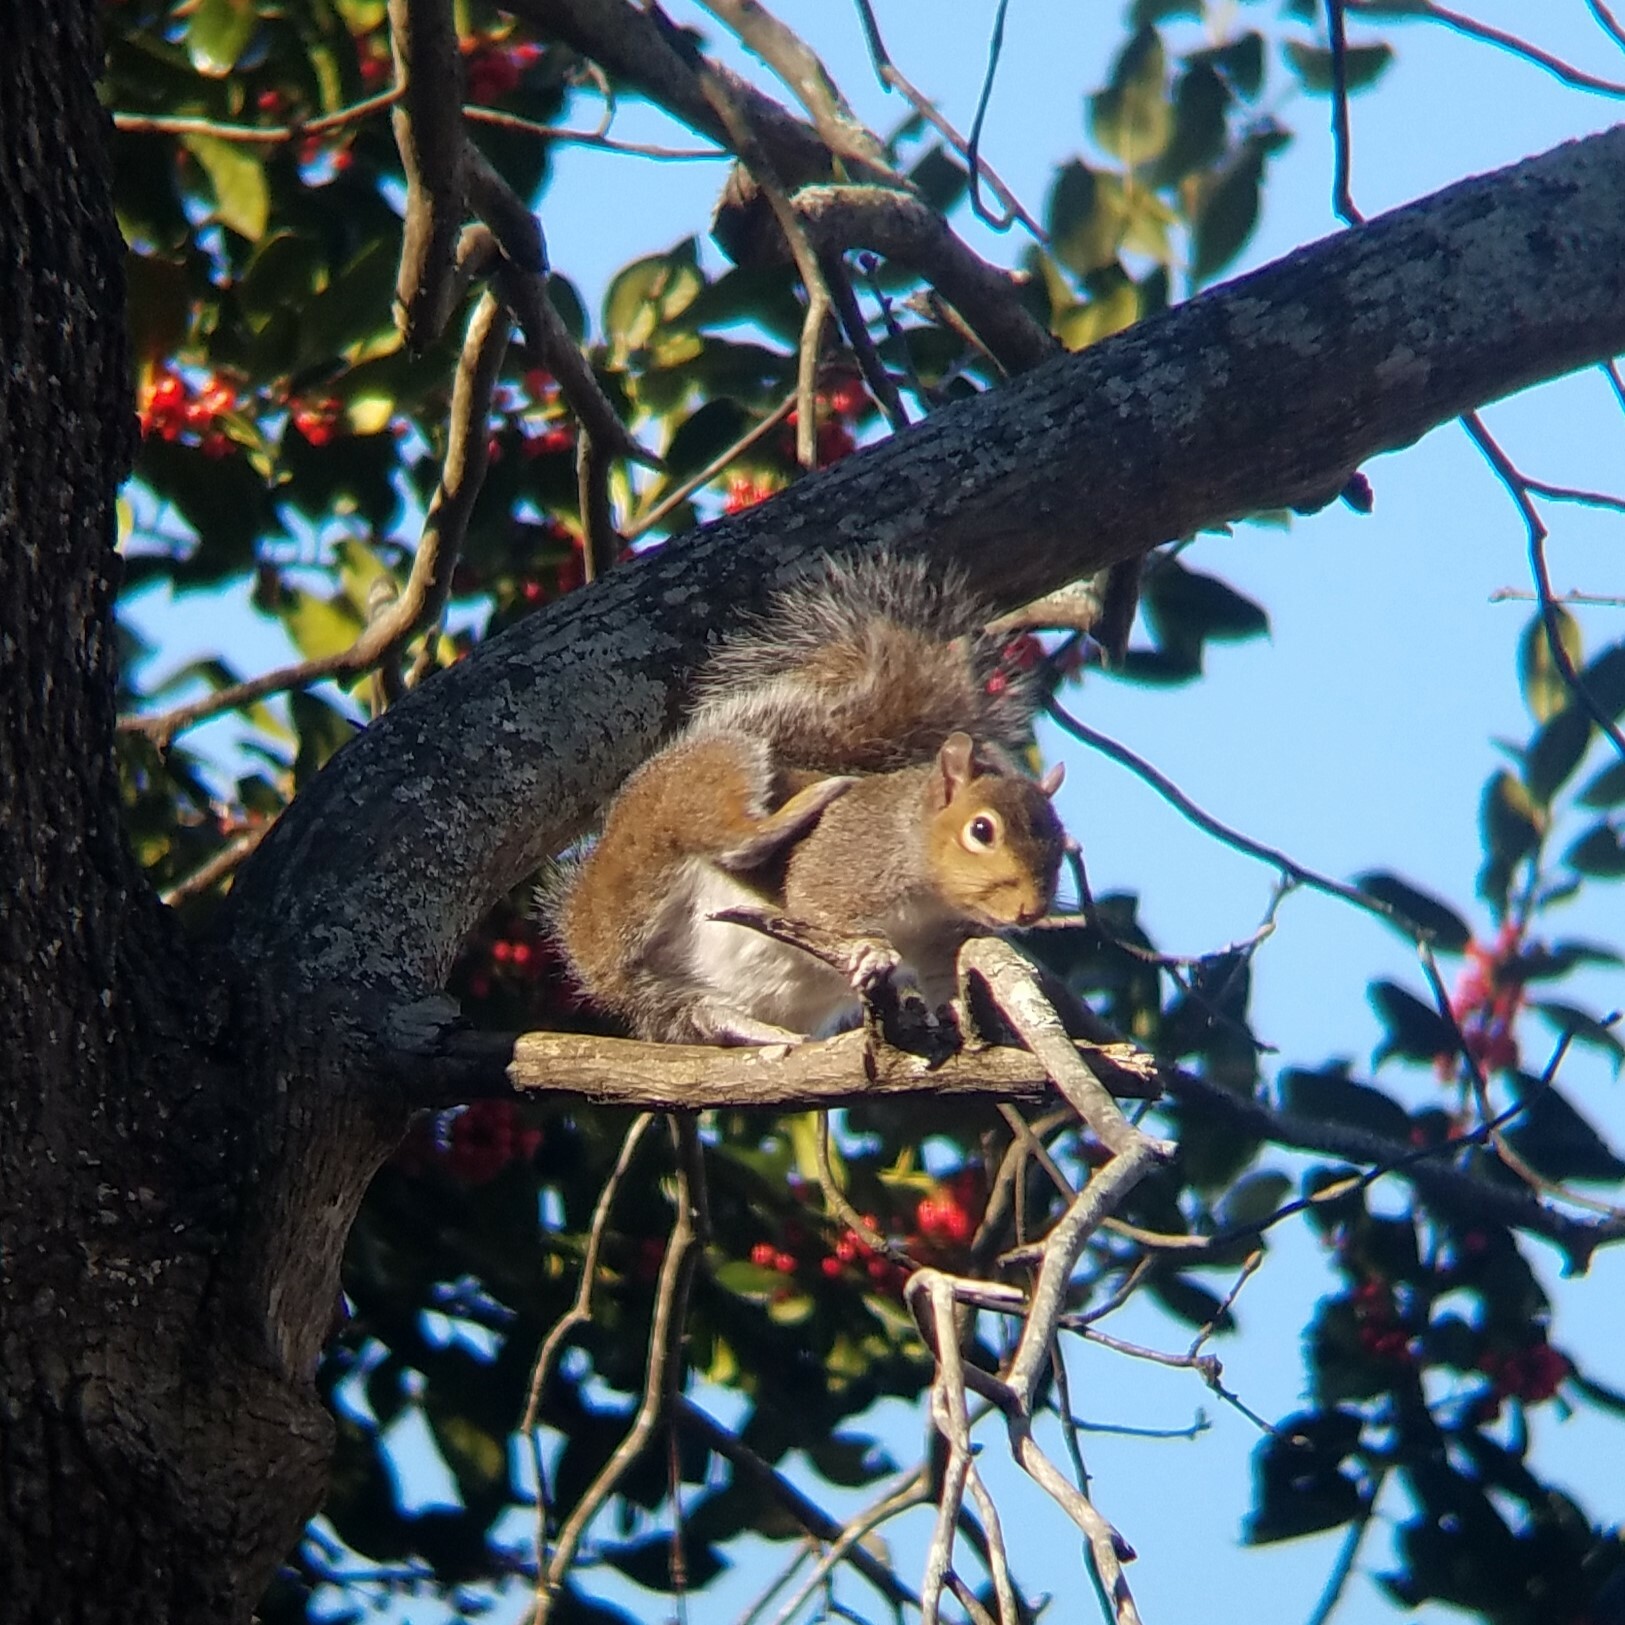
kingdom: Animalia
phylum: Chordata
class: Mammalia
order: Rodentia
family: Sciuridae
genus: Sciurus
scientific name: Sciurus carolinensis
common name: Eastern gray squirrel
